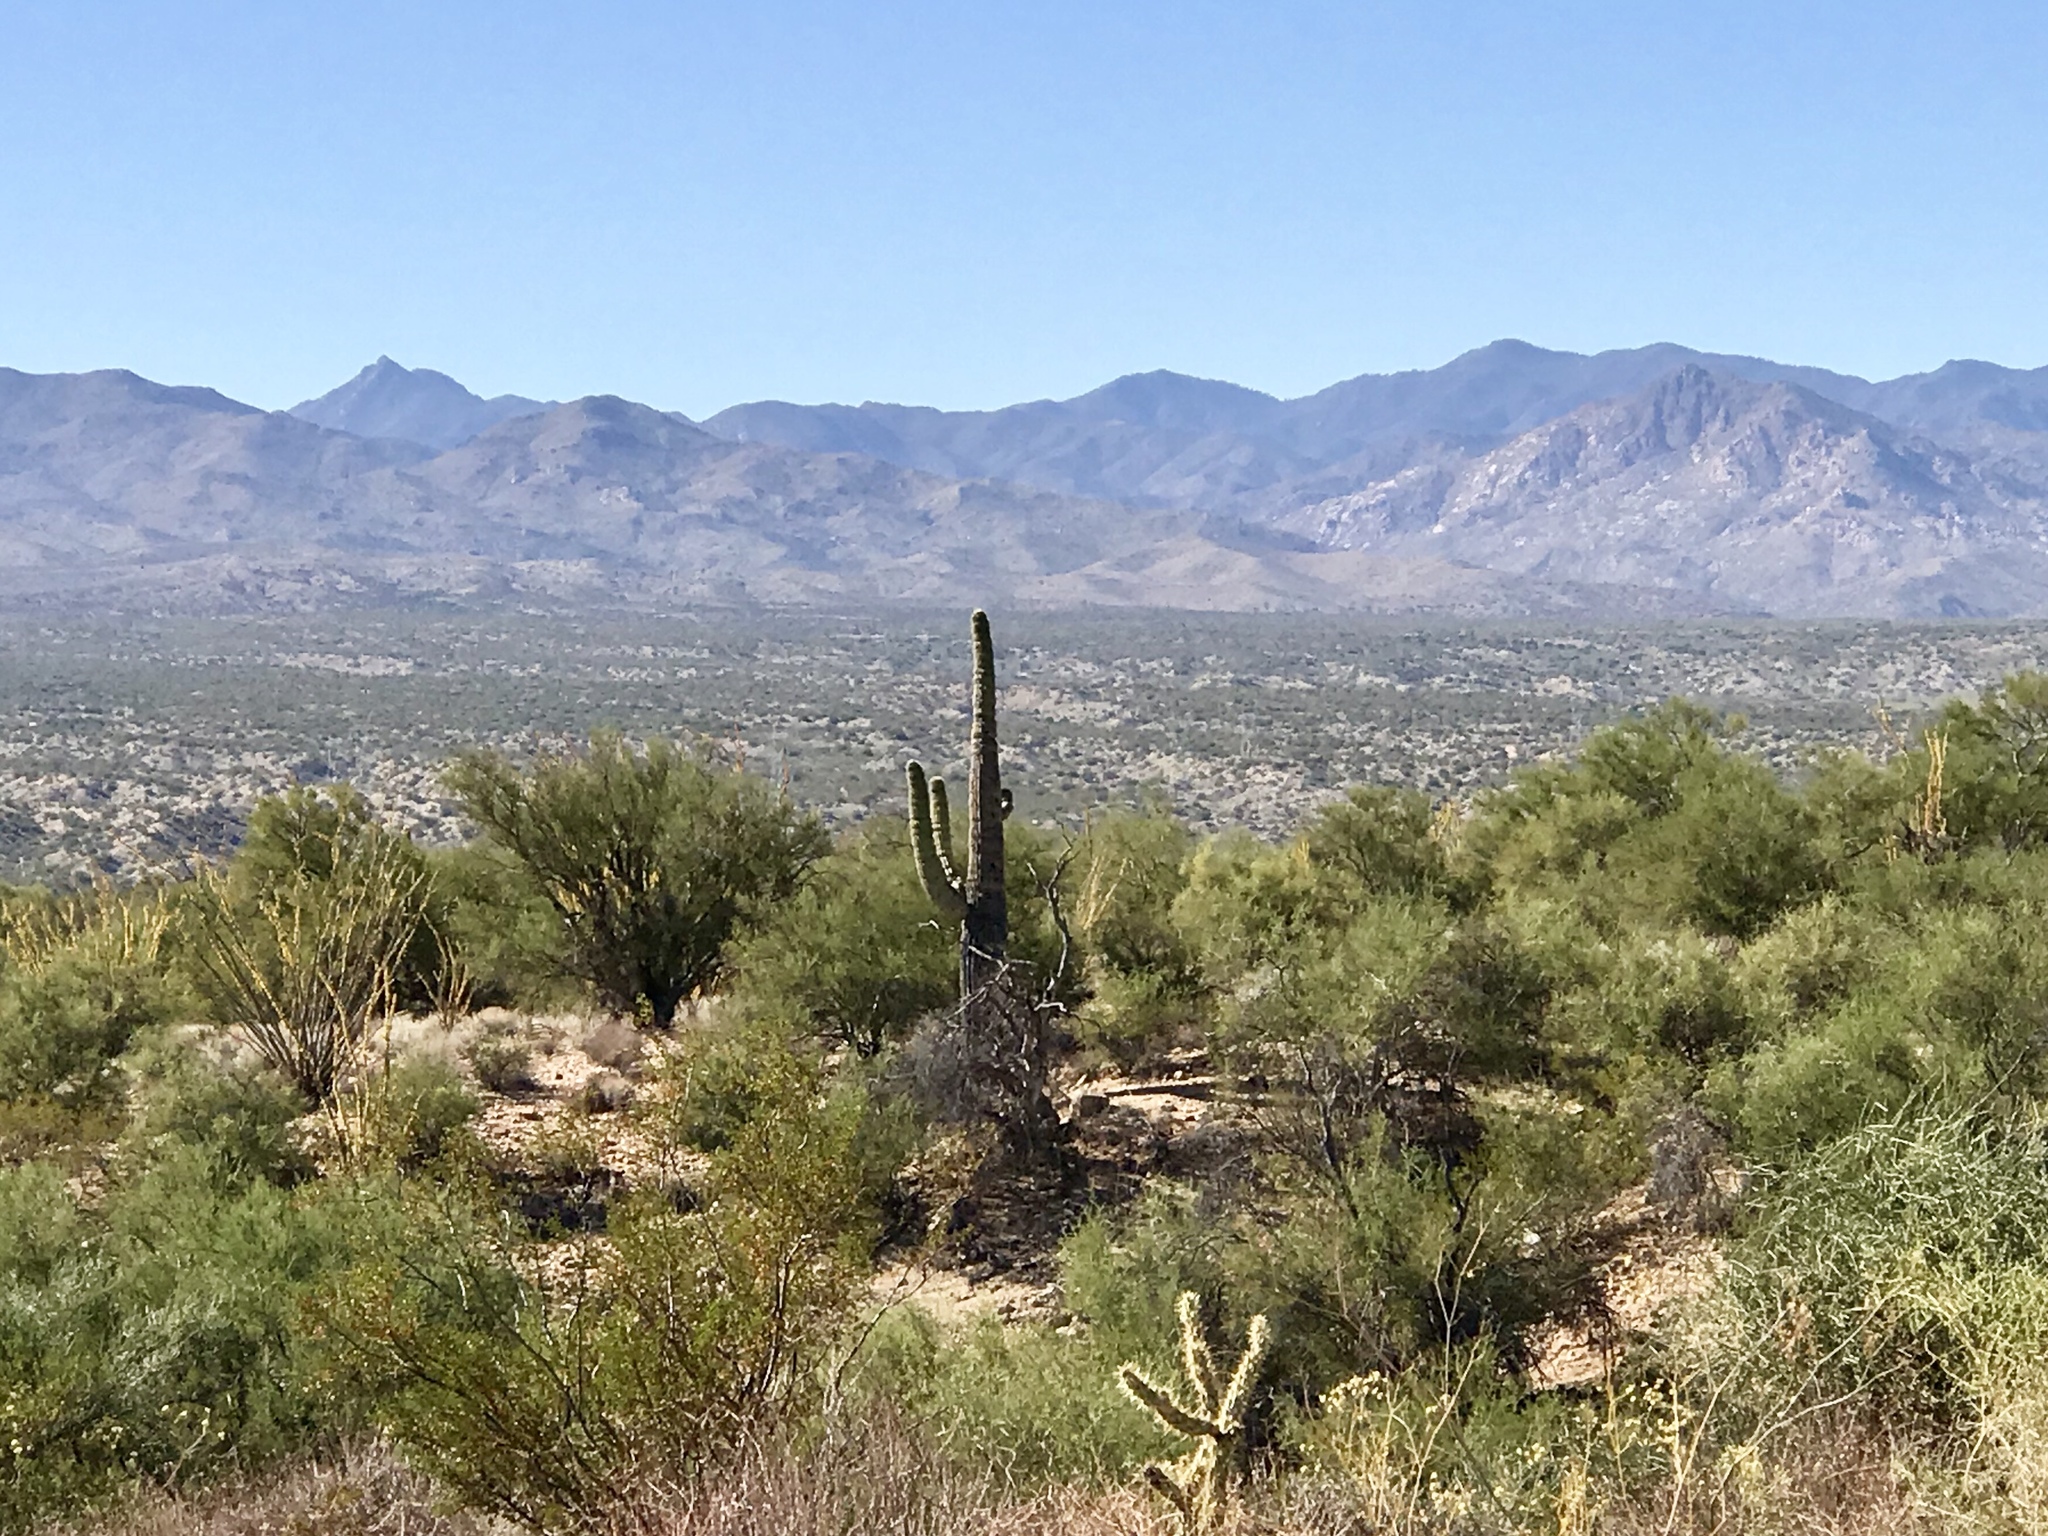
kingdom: Plantae
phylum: Tracheophyta
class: Magnoliopsida
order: Caryophyllales
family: Cactaceae
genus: Carnegiea
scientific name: Carnegiea gigantea
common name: Saguaro
